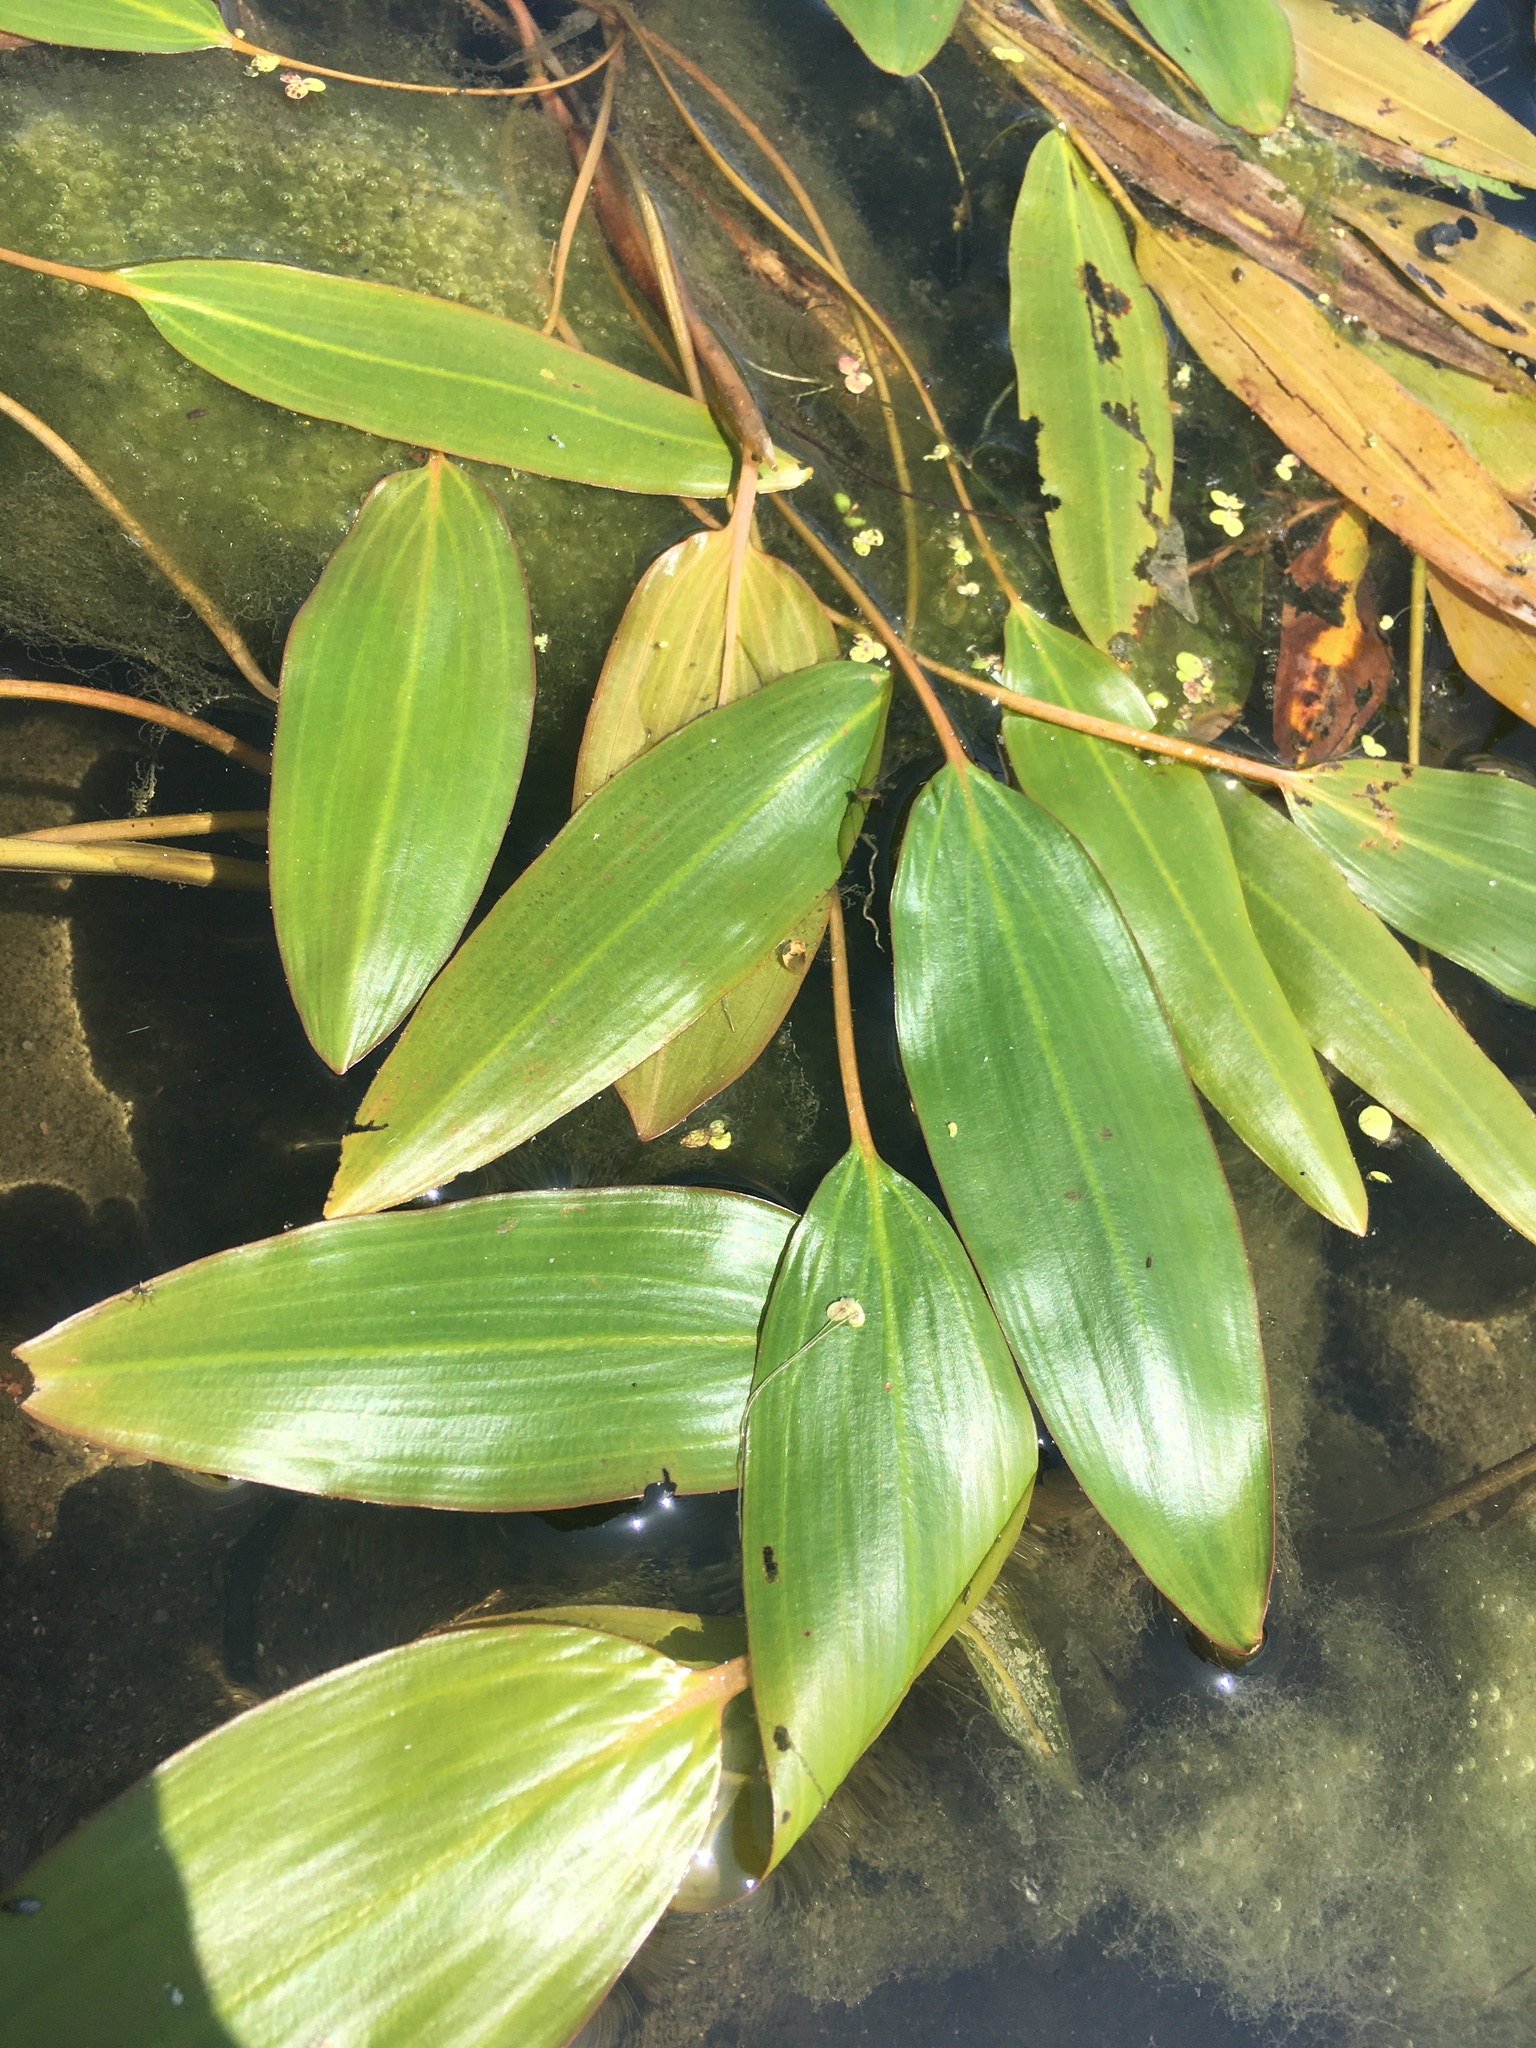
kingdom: Plantae
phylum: Tracheophyta
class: Liliopsida
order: Alismatales
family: Potamogetonaceae
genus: Potamogeton
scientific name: Potamogeton nodosus
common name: Loddon pondweed
